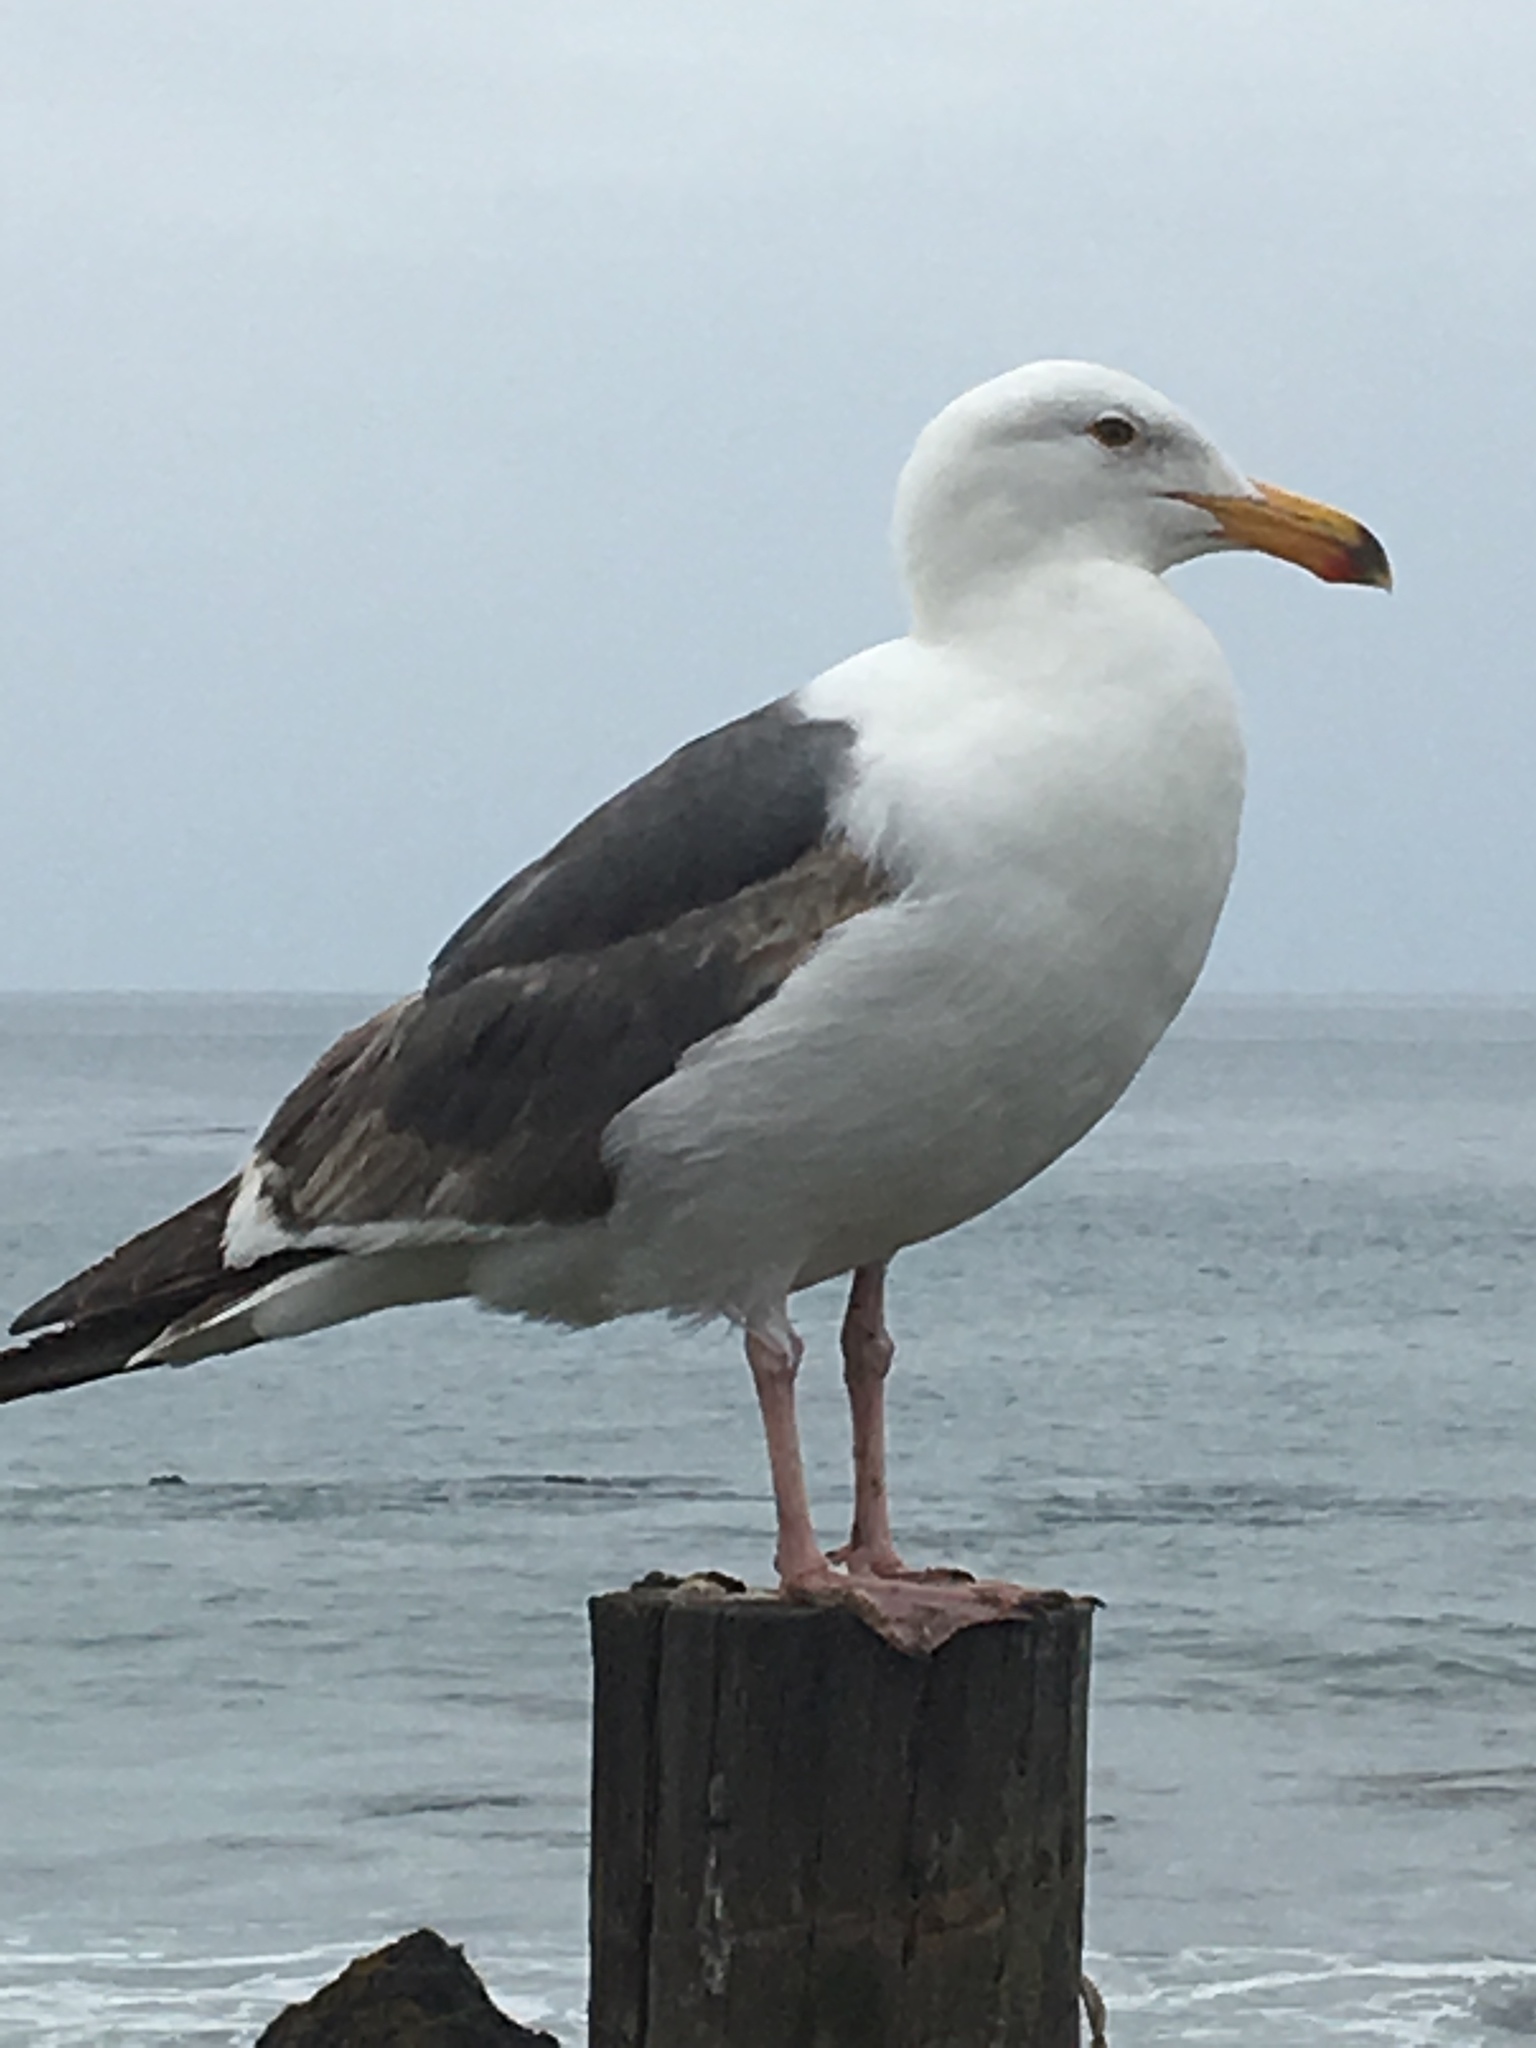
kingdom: Animalia
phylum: Chordata
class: Aves
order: Charadriiformes
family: Laridae
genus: Larus
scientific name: Larus occidentalis
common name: Western gull
